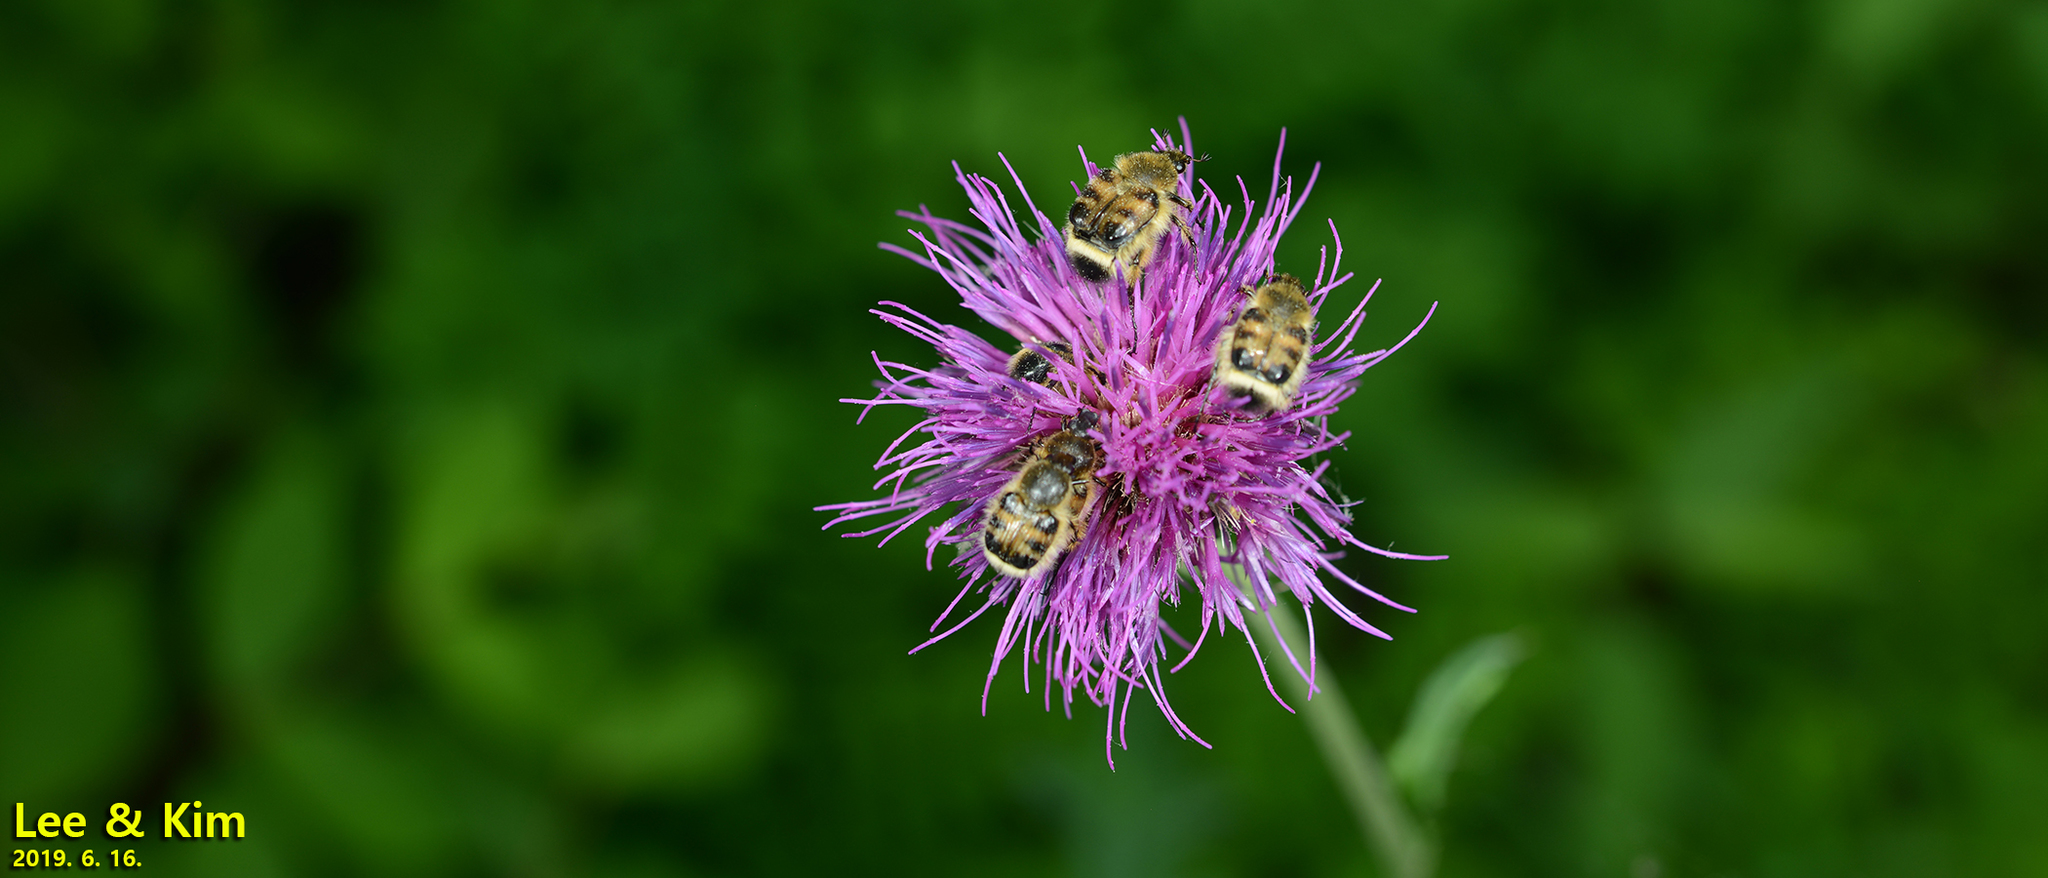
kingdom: Animalia
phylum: Arthropoda
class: Insecta
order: Coleoptera
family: Scarabaeidae
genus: Lasiotrichius
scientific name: Lasiotrichius succinctus
